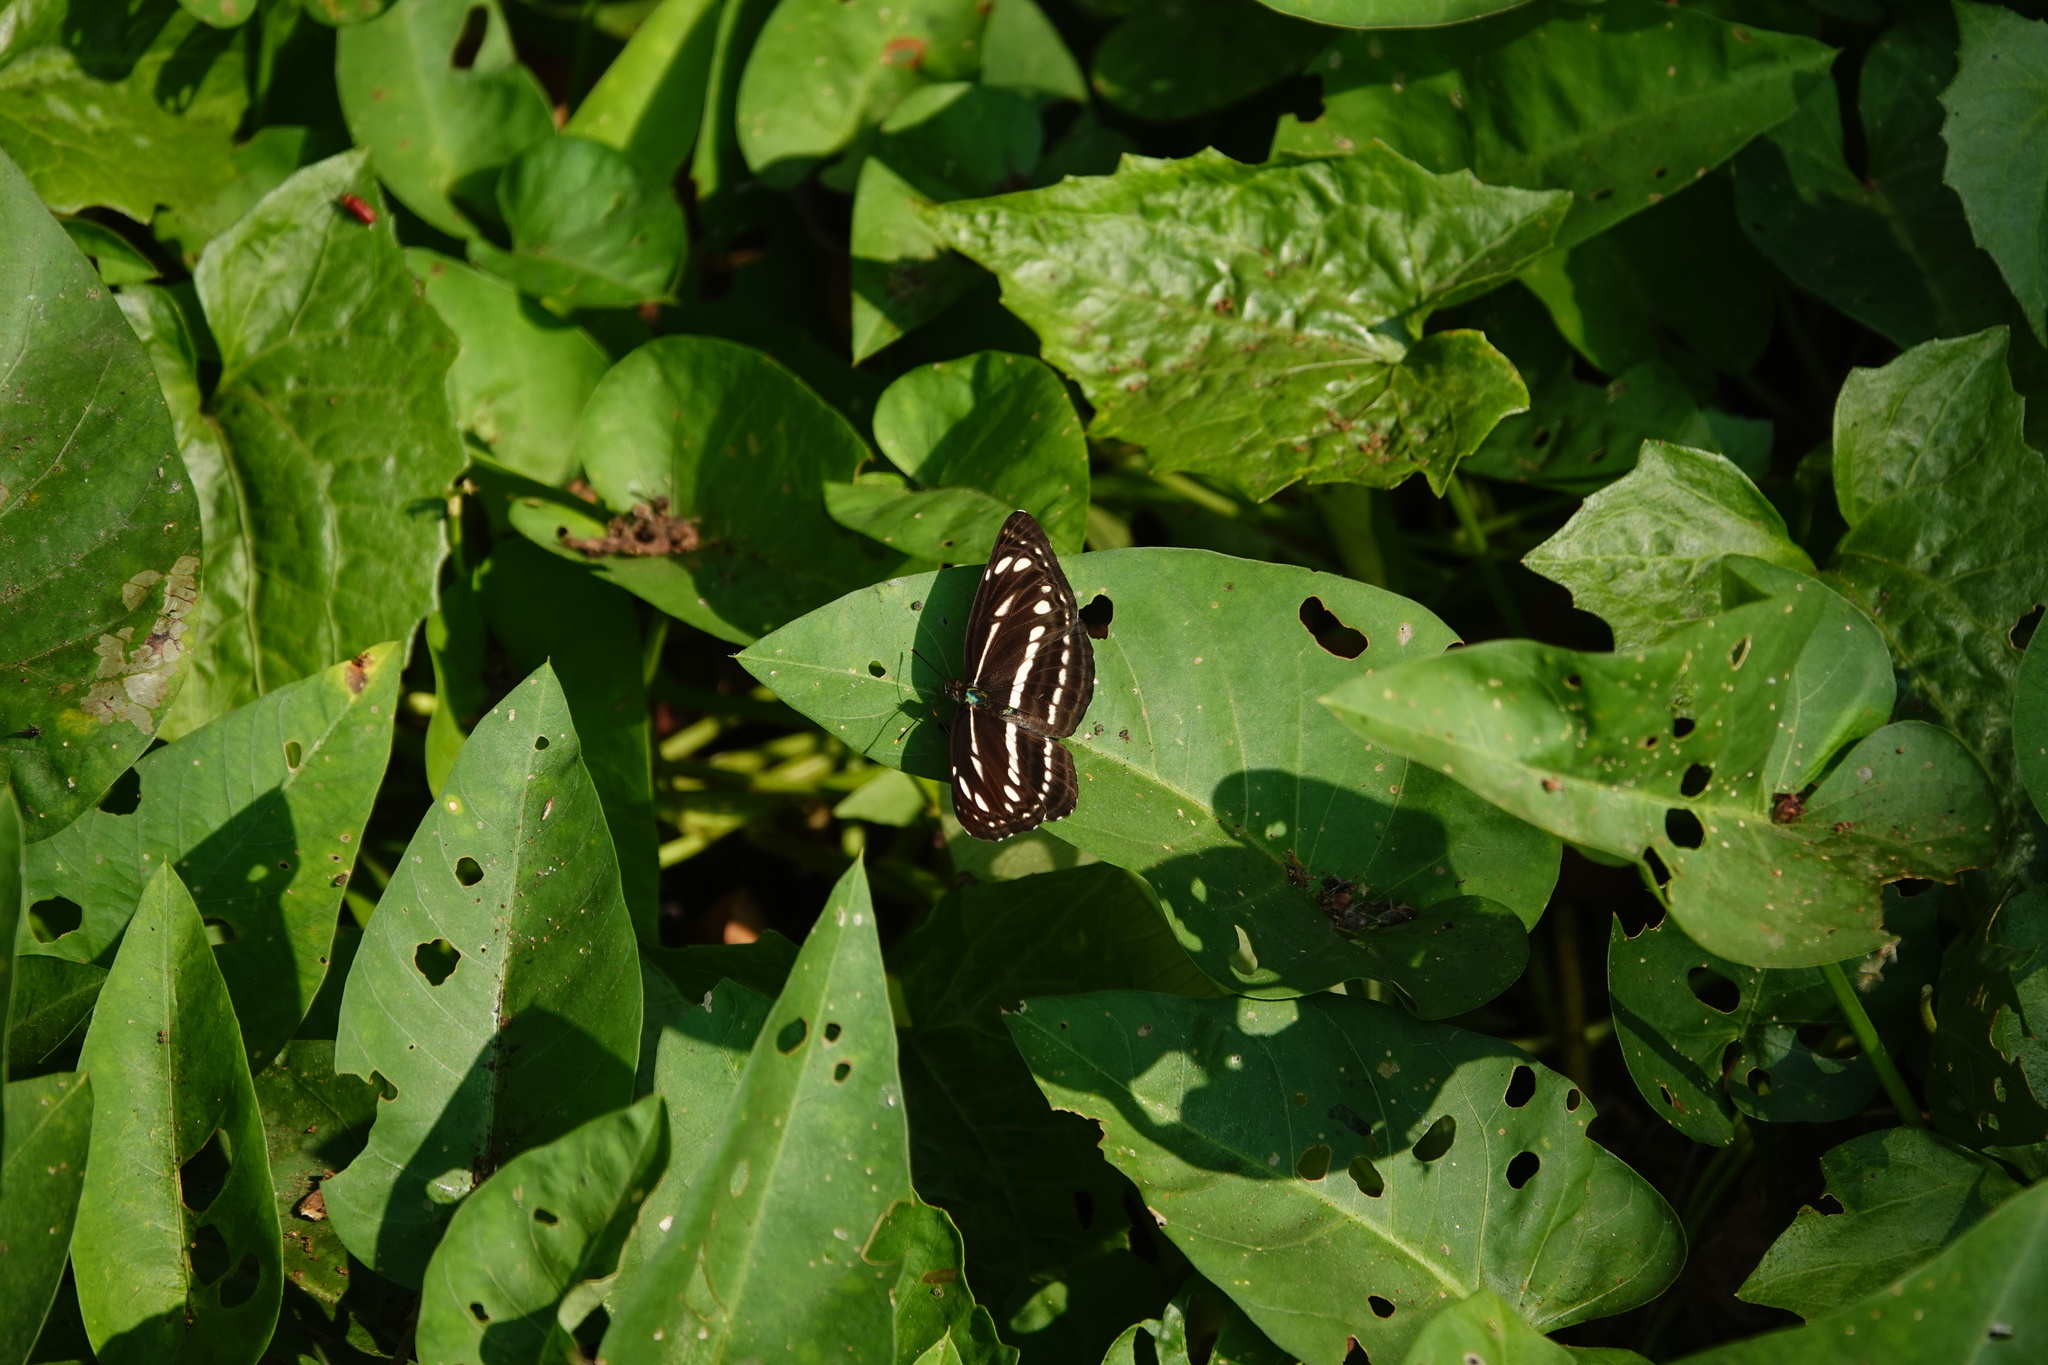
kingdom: Animalia
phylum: Arthropoda
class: Insecta
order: Lepidoptera
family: Nymphalidae
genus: Neptis
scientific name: Neptis nata
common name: Sullied brown sailer
